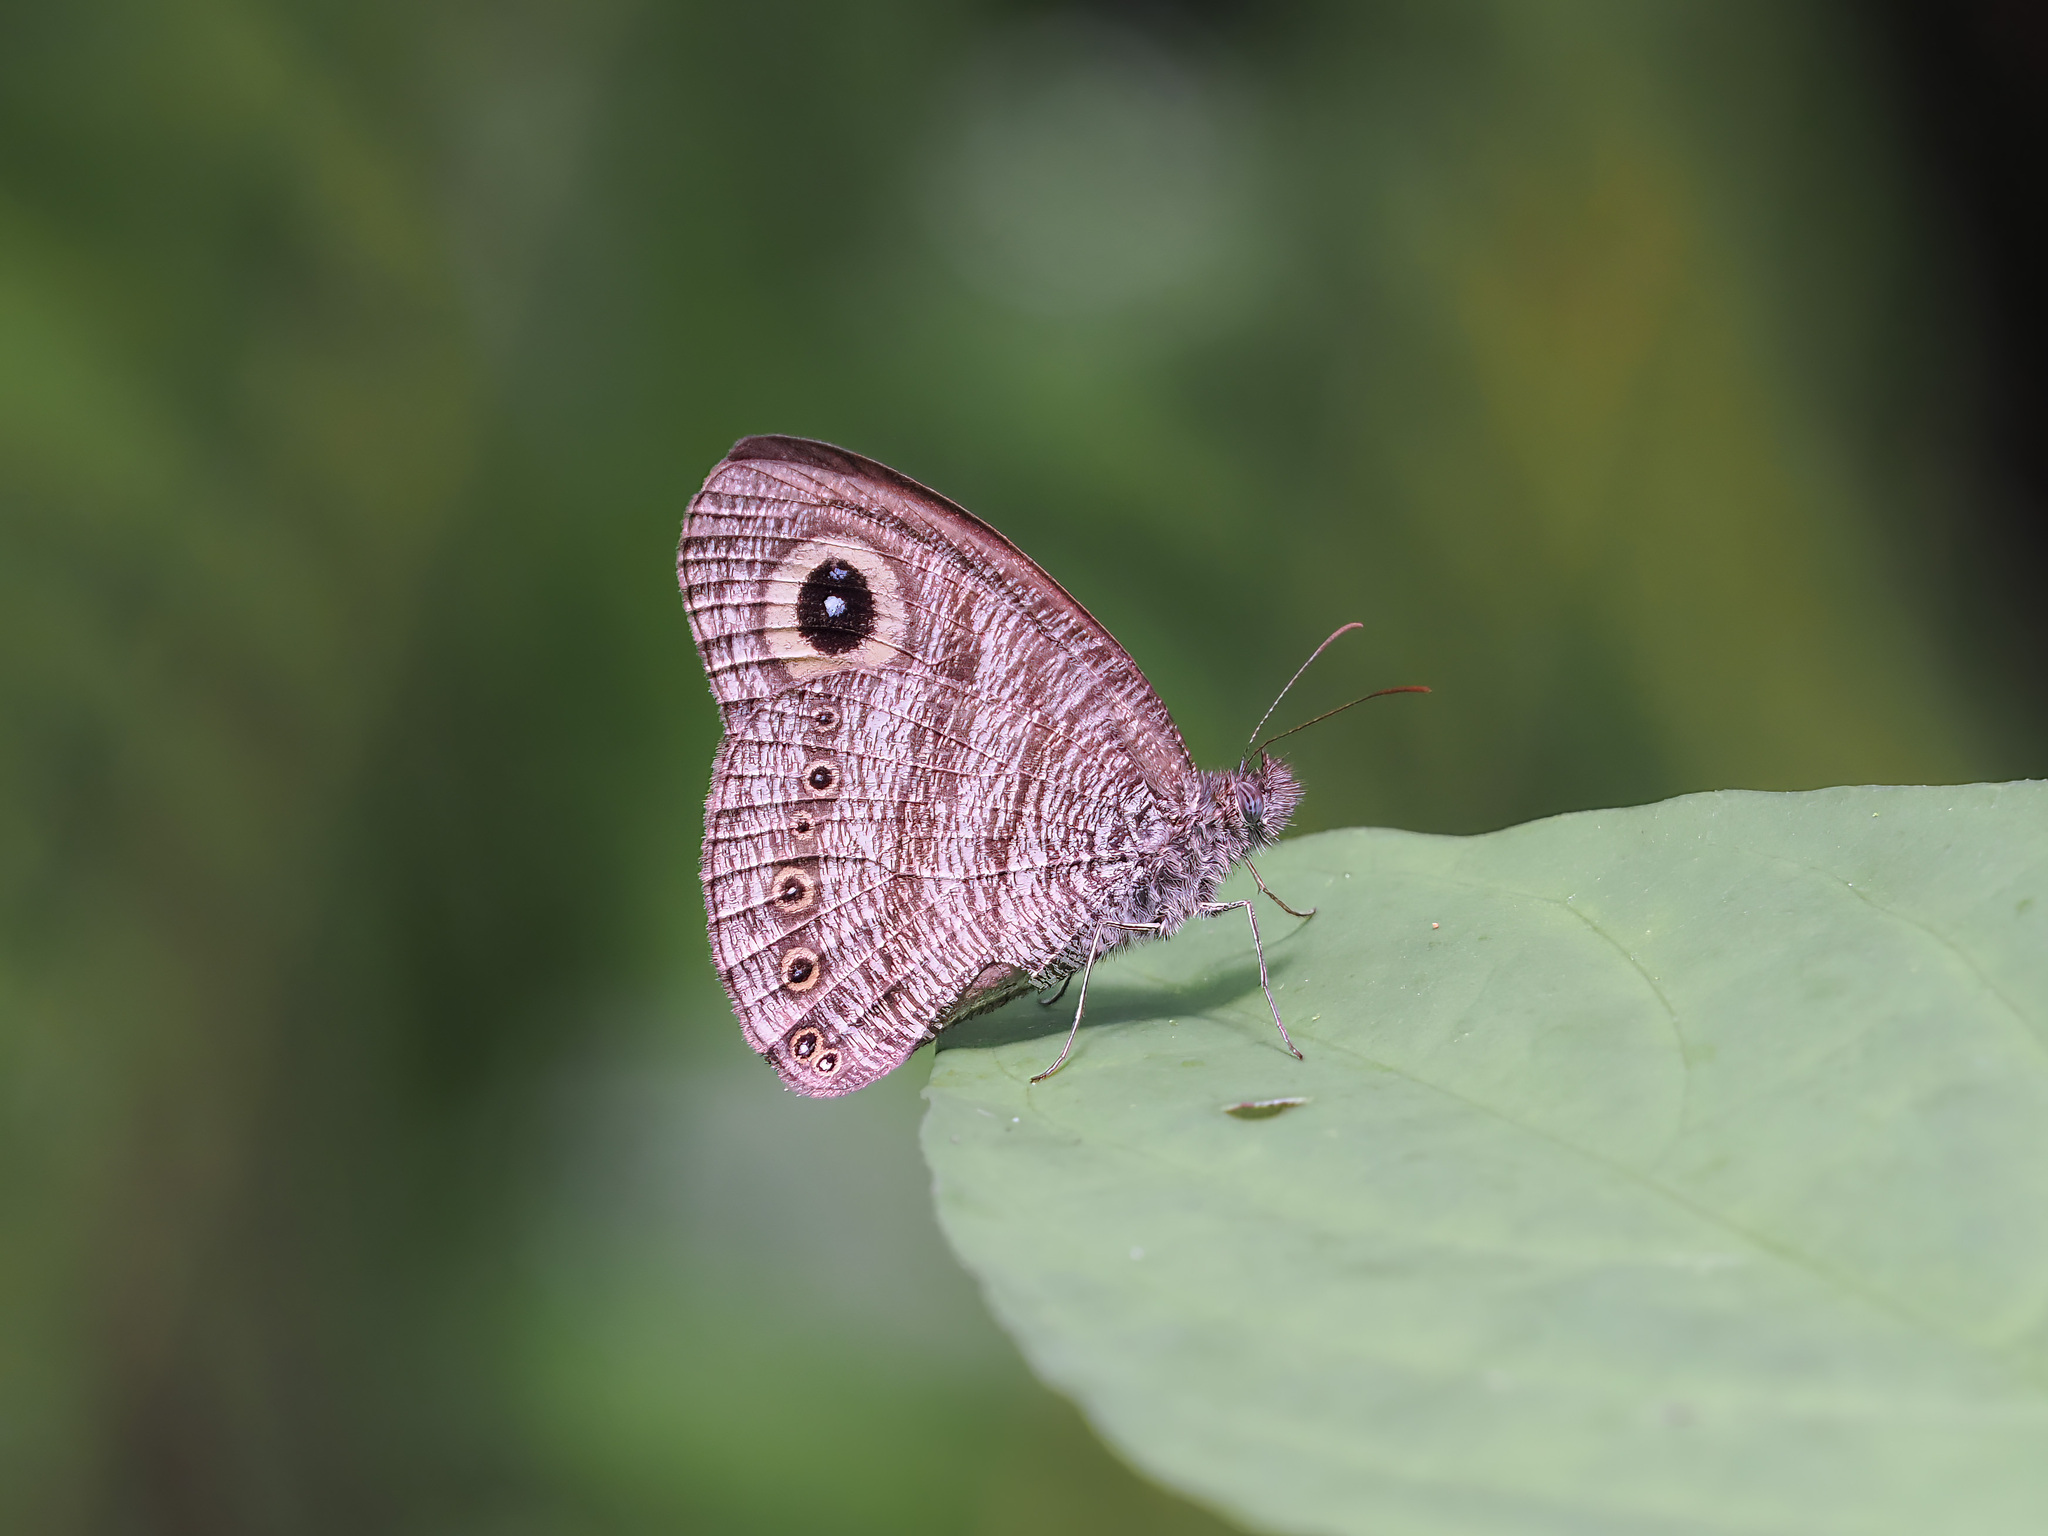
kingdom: Animalia
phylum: Arthropoda
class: Insecta
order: Lepidoptera
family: Nymphalidae
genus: Ypthima
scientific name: Ypthima fasciata
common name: Malayan six-ring
